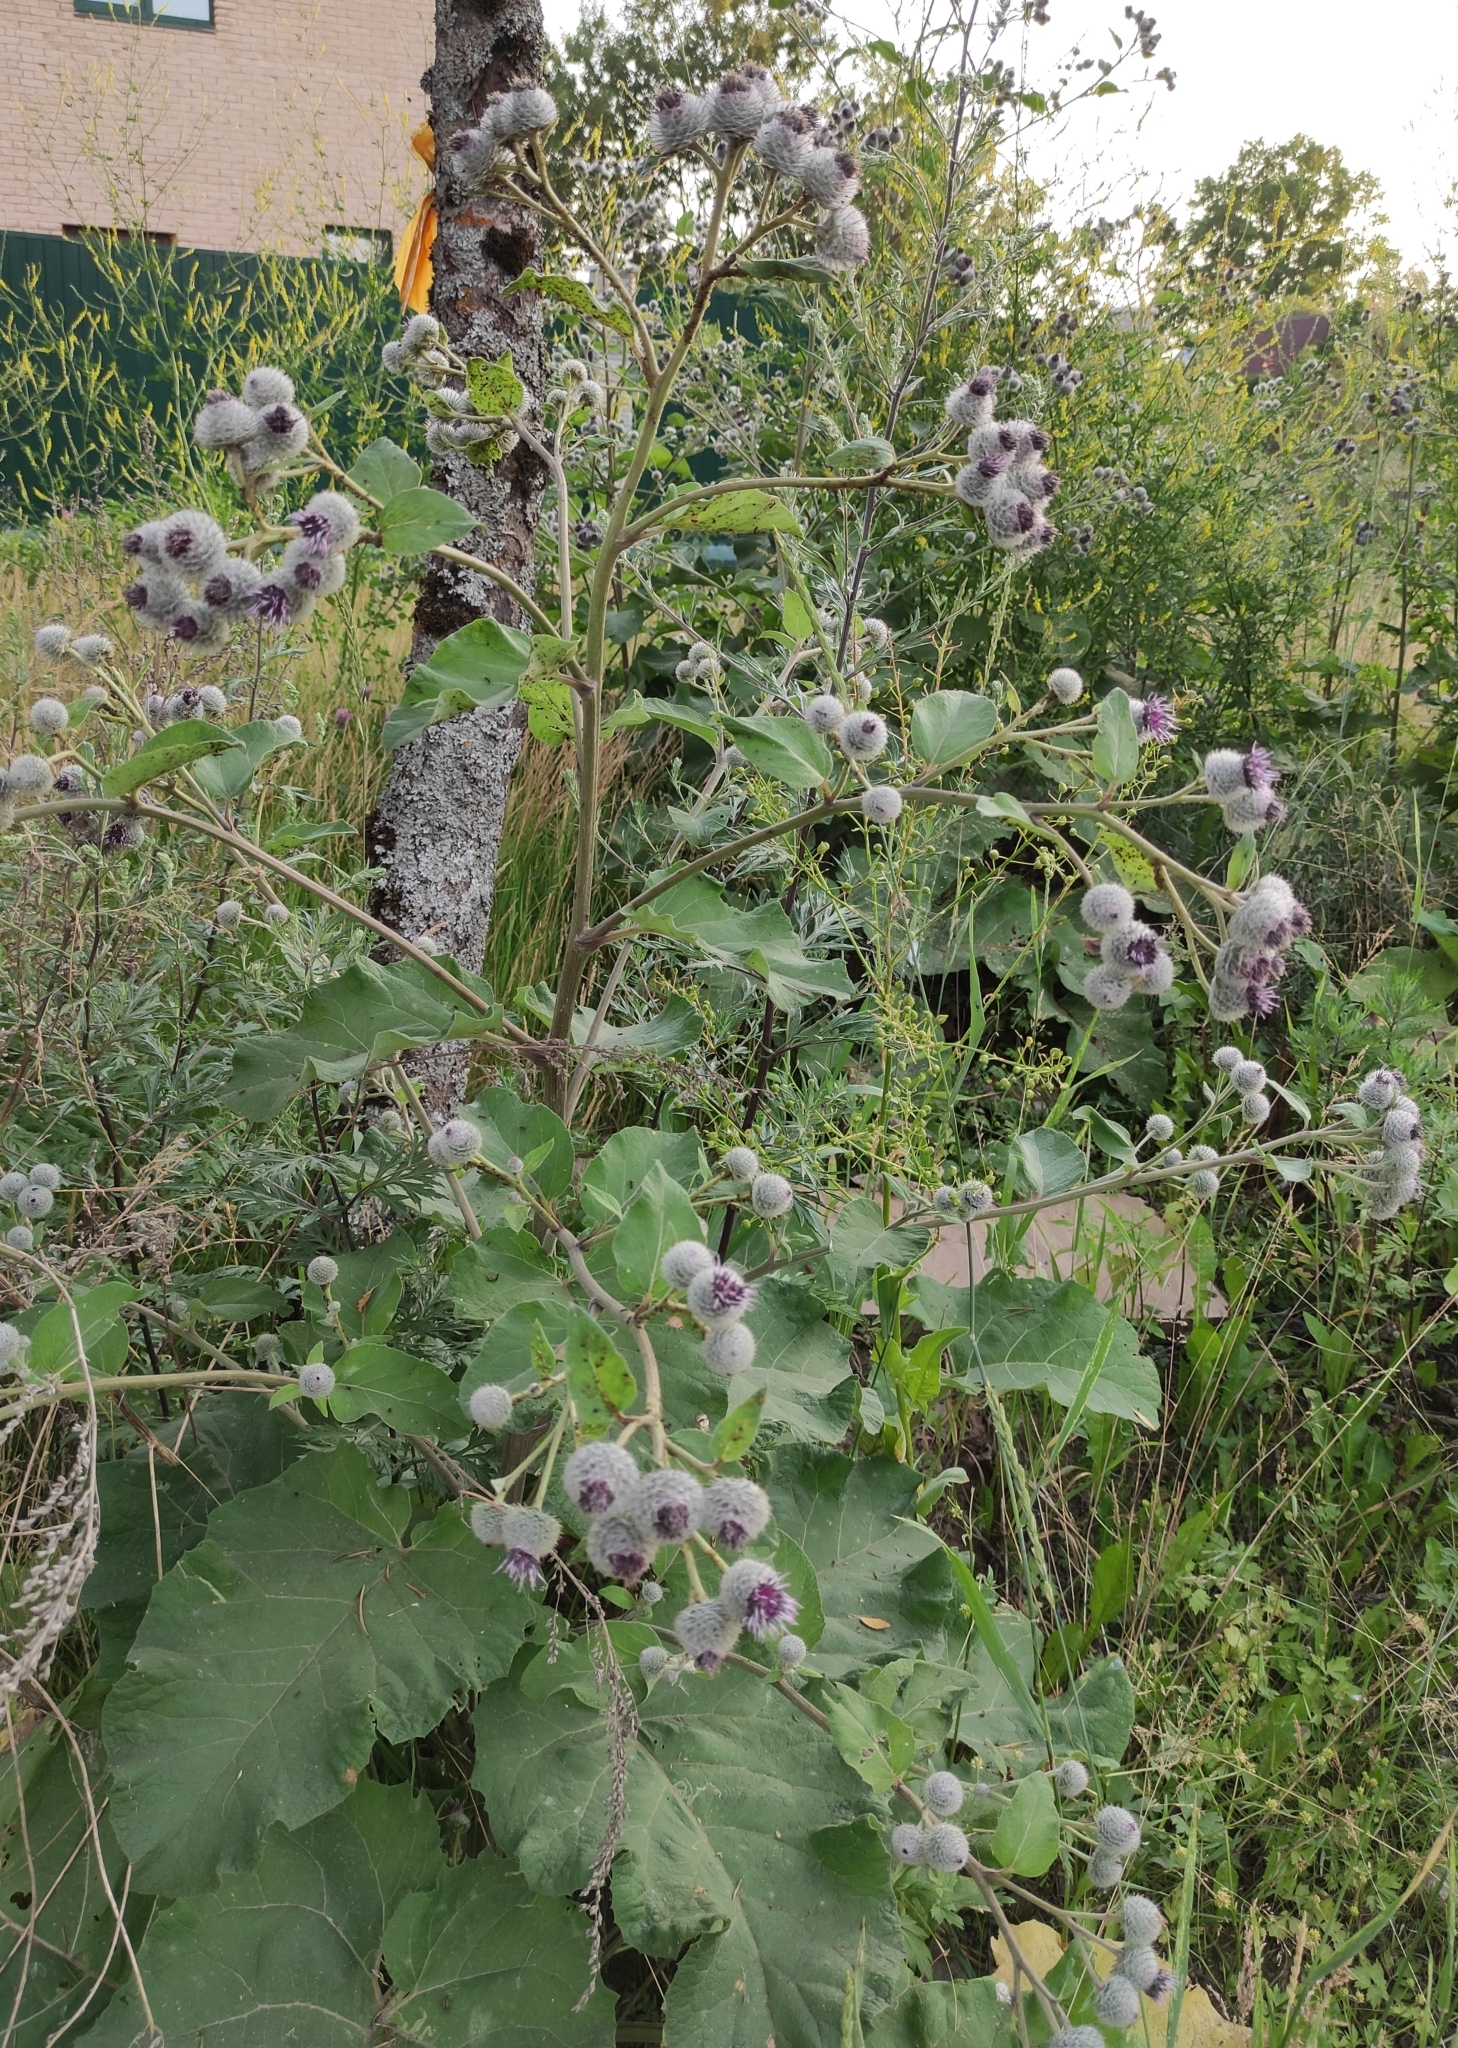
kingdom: Plantae
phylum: Tracheophyta
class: Magnoliopsida
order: Asterales
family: Asteraceae
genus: Arctium
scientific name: Arctium tomentosum
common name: Woolly burdock
